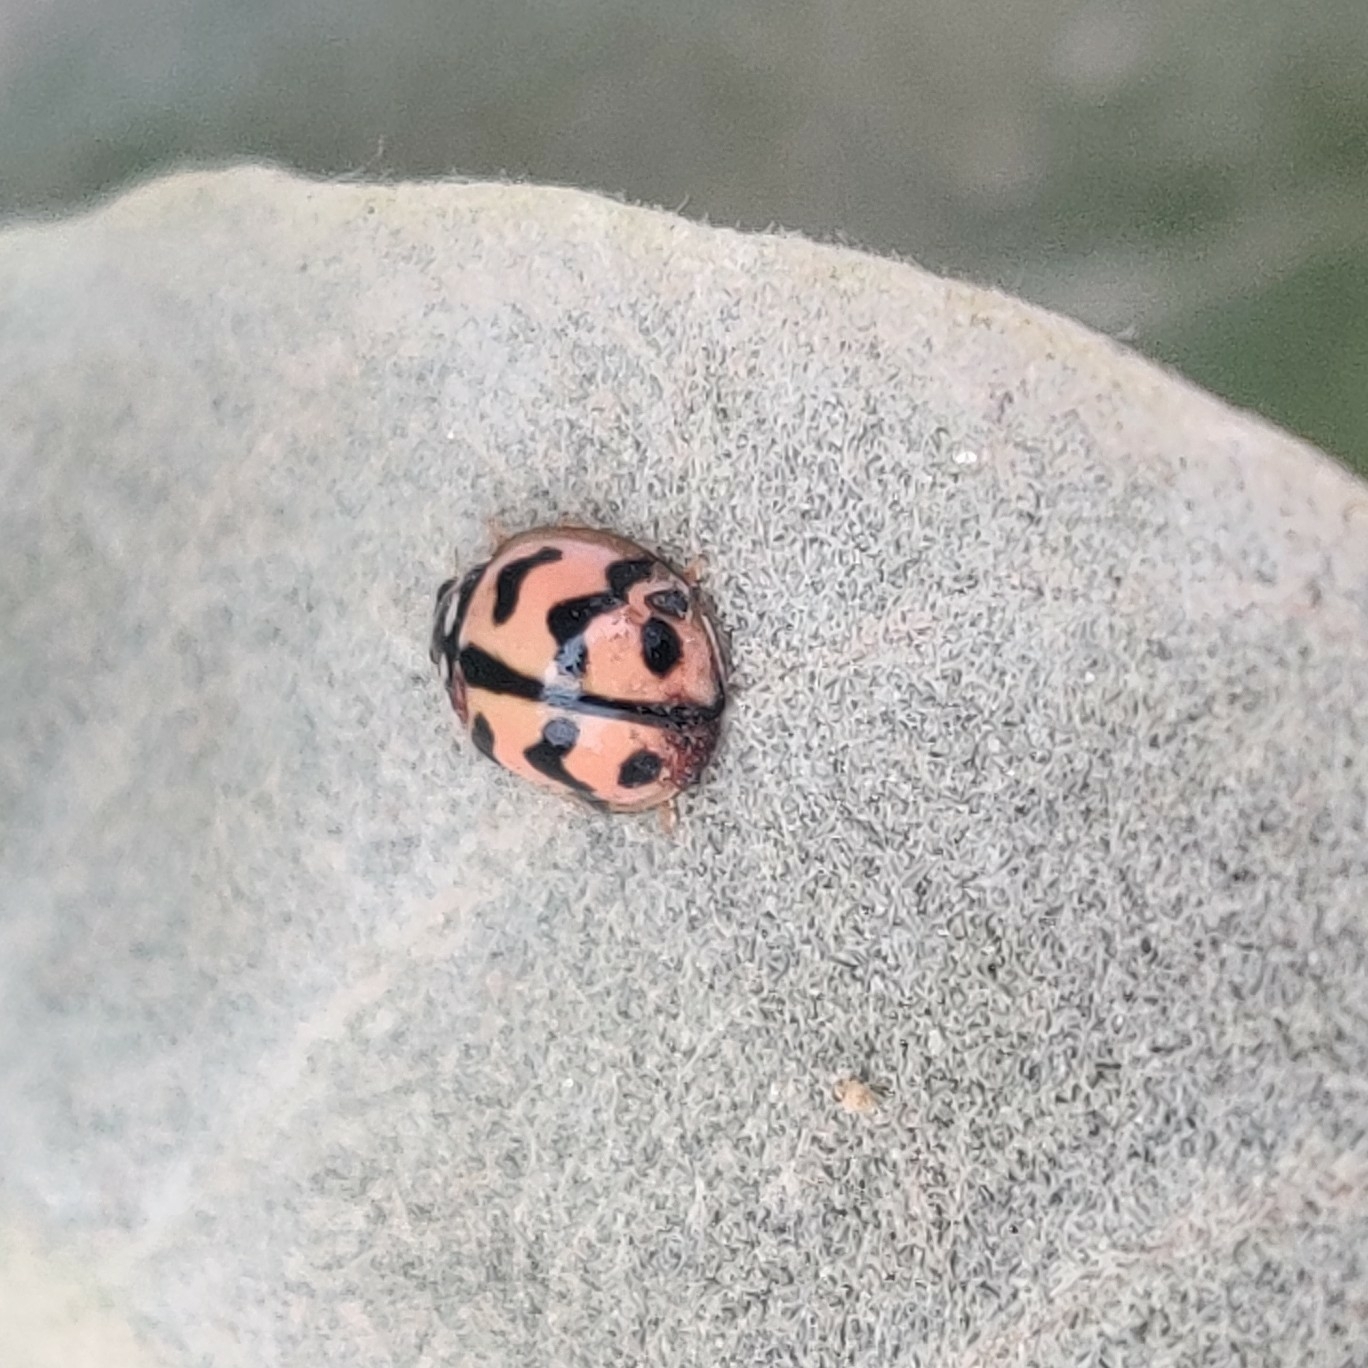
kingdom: Animalia
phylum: Arthropoda
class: Insecta
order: Coleoptera
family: Coccinellidae
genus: Cheilomenes
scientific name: Cheilomenes sexmaculata
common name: Ladybird beetle
